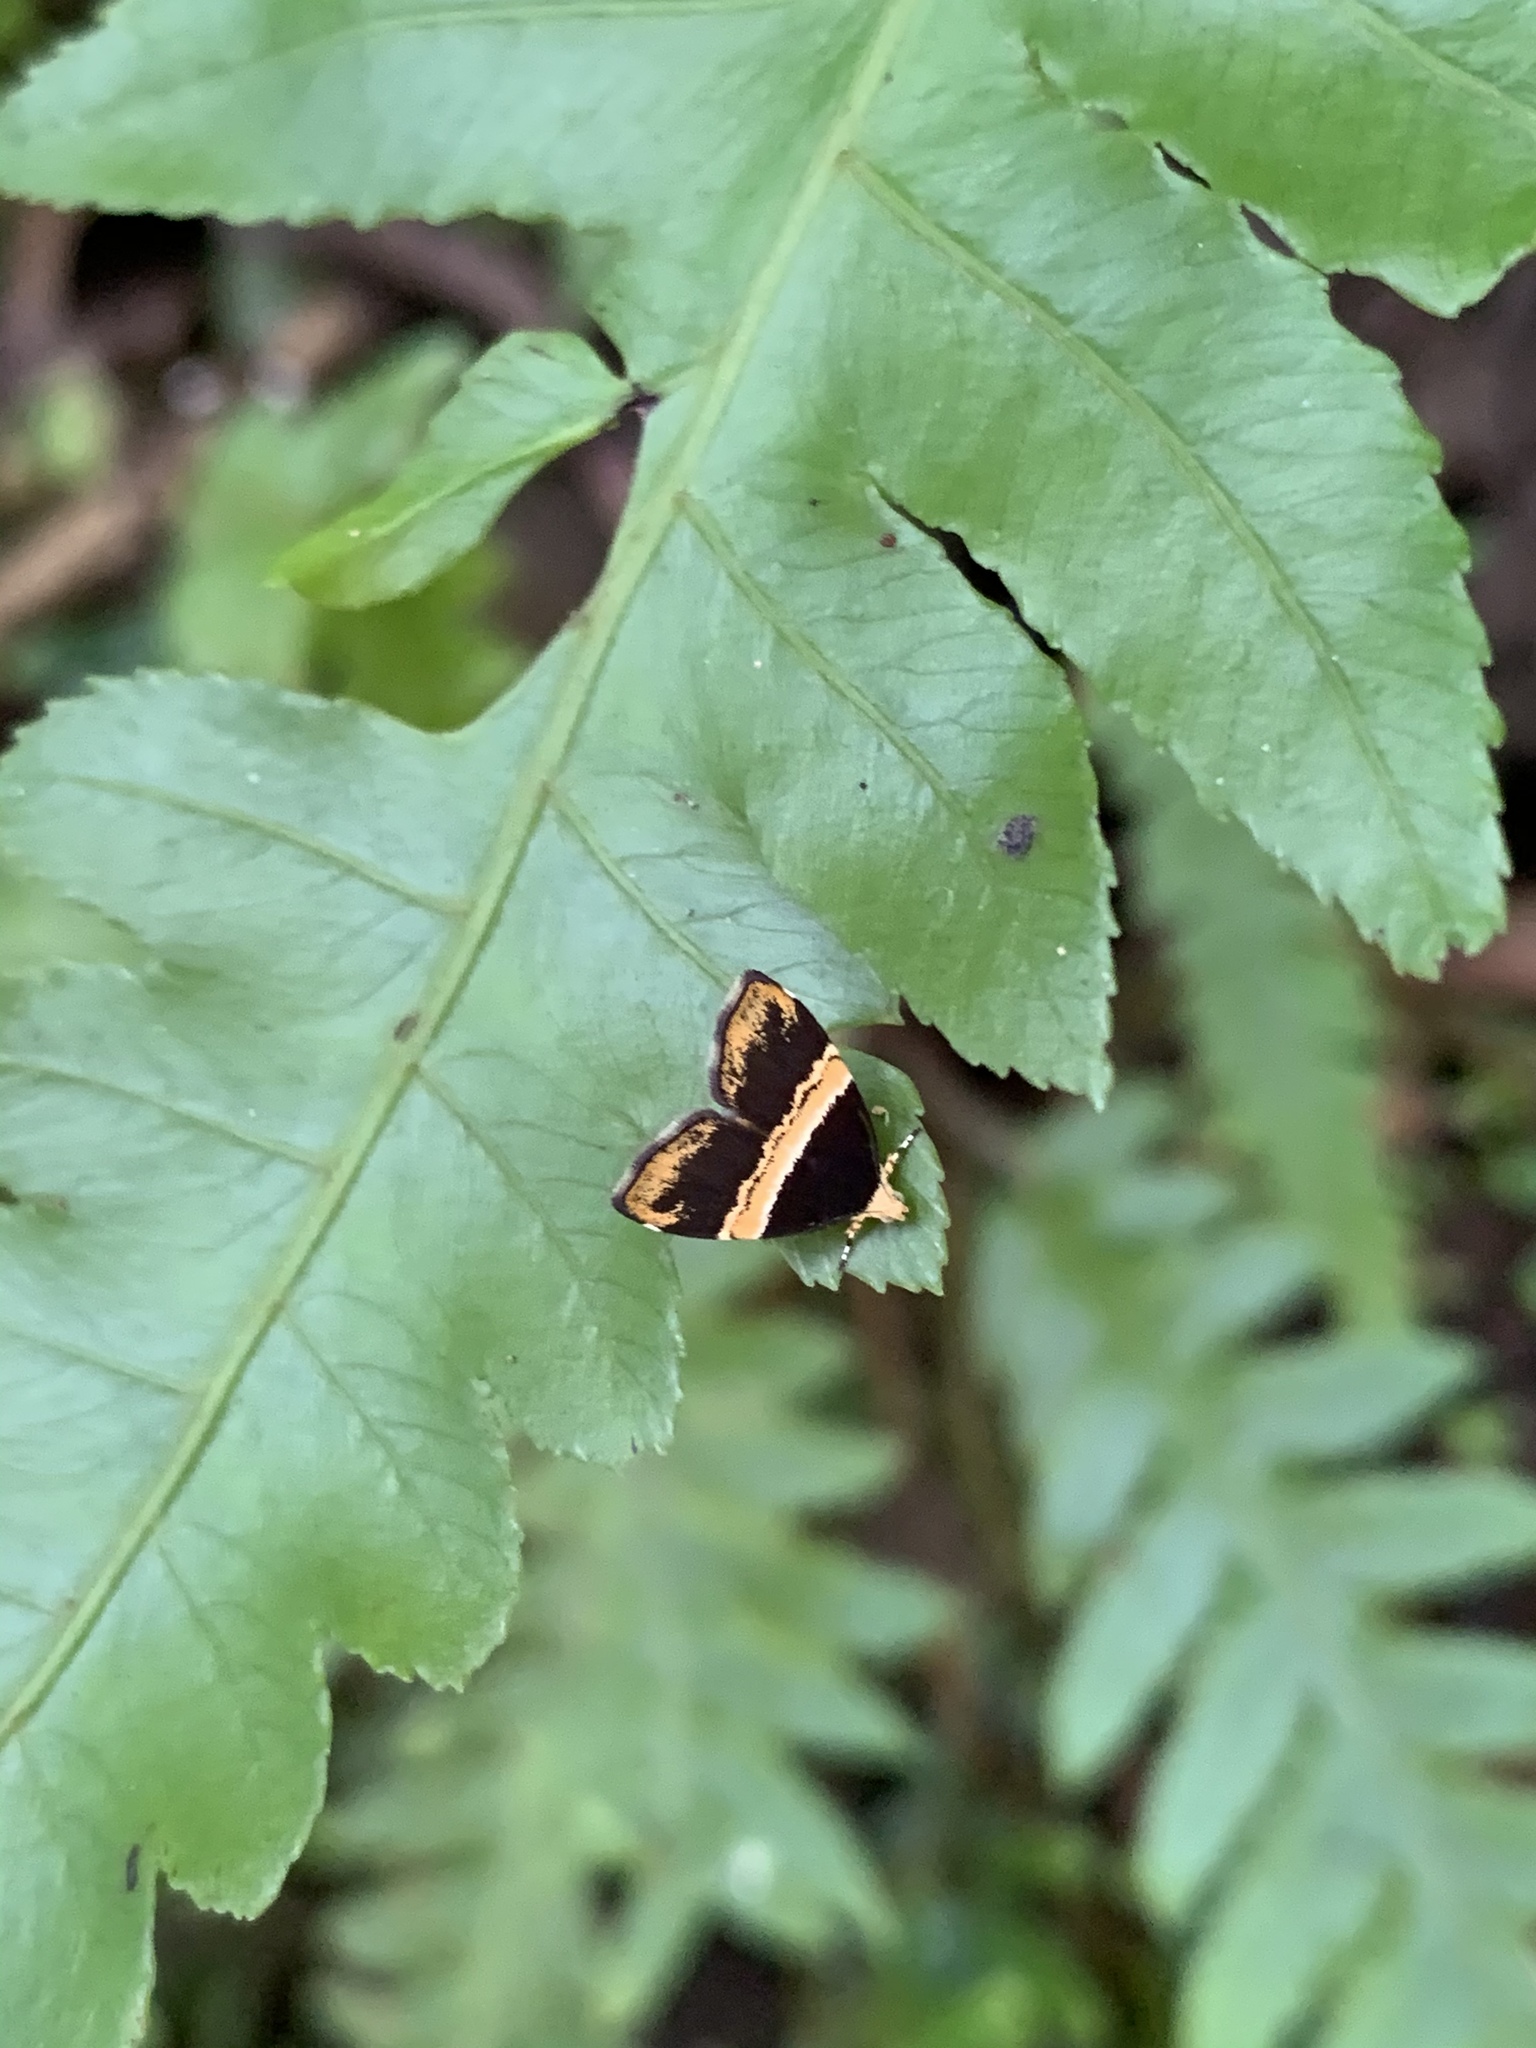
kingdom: Animalia
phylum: Arthropoda
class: Insecta
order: Lepidoptera
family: Choreutidae
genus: Choreutis
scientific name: Choreutis basalis
